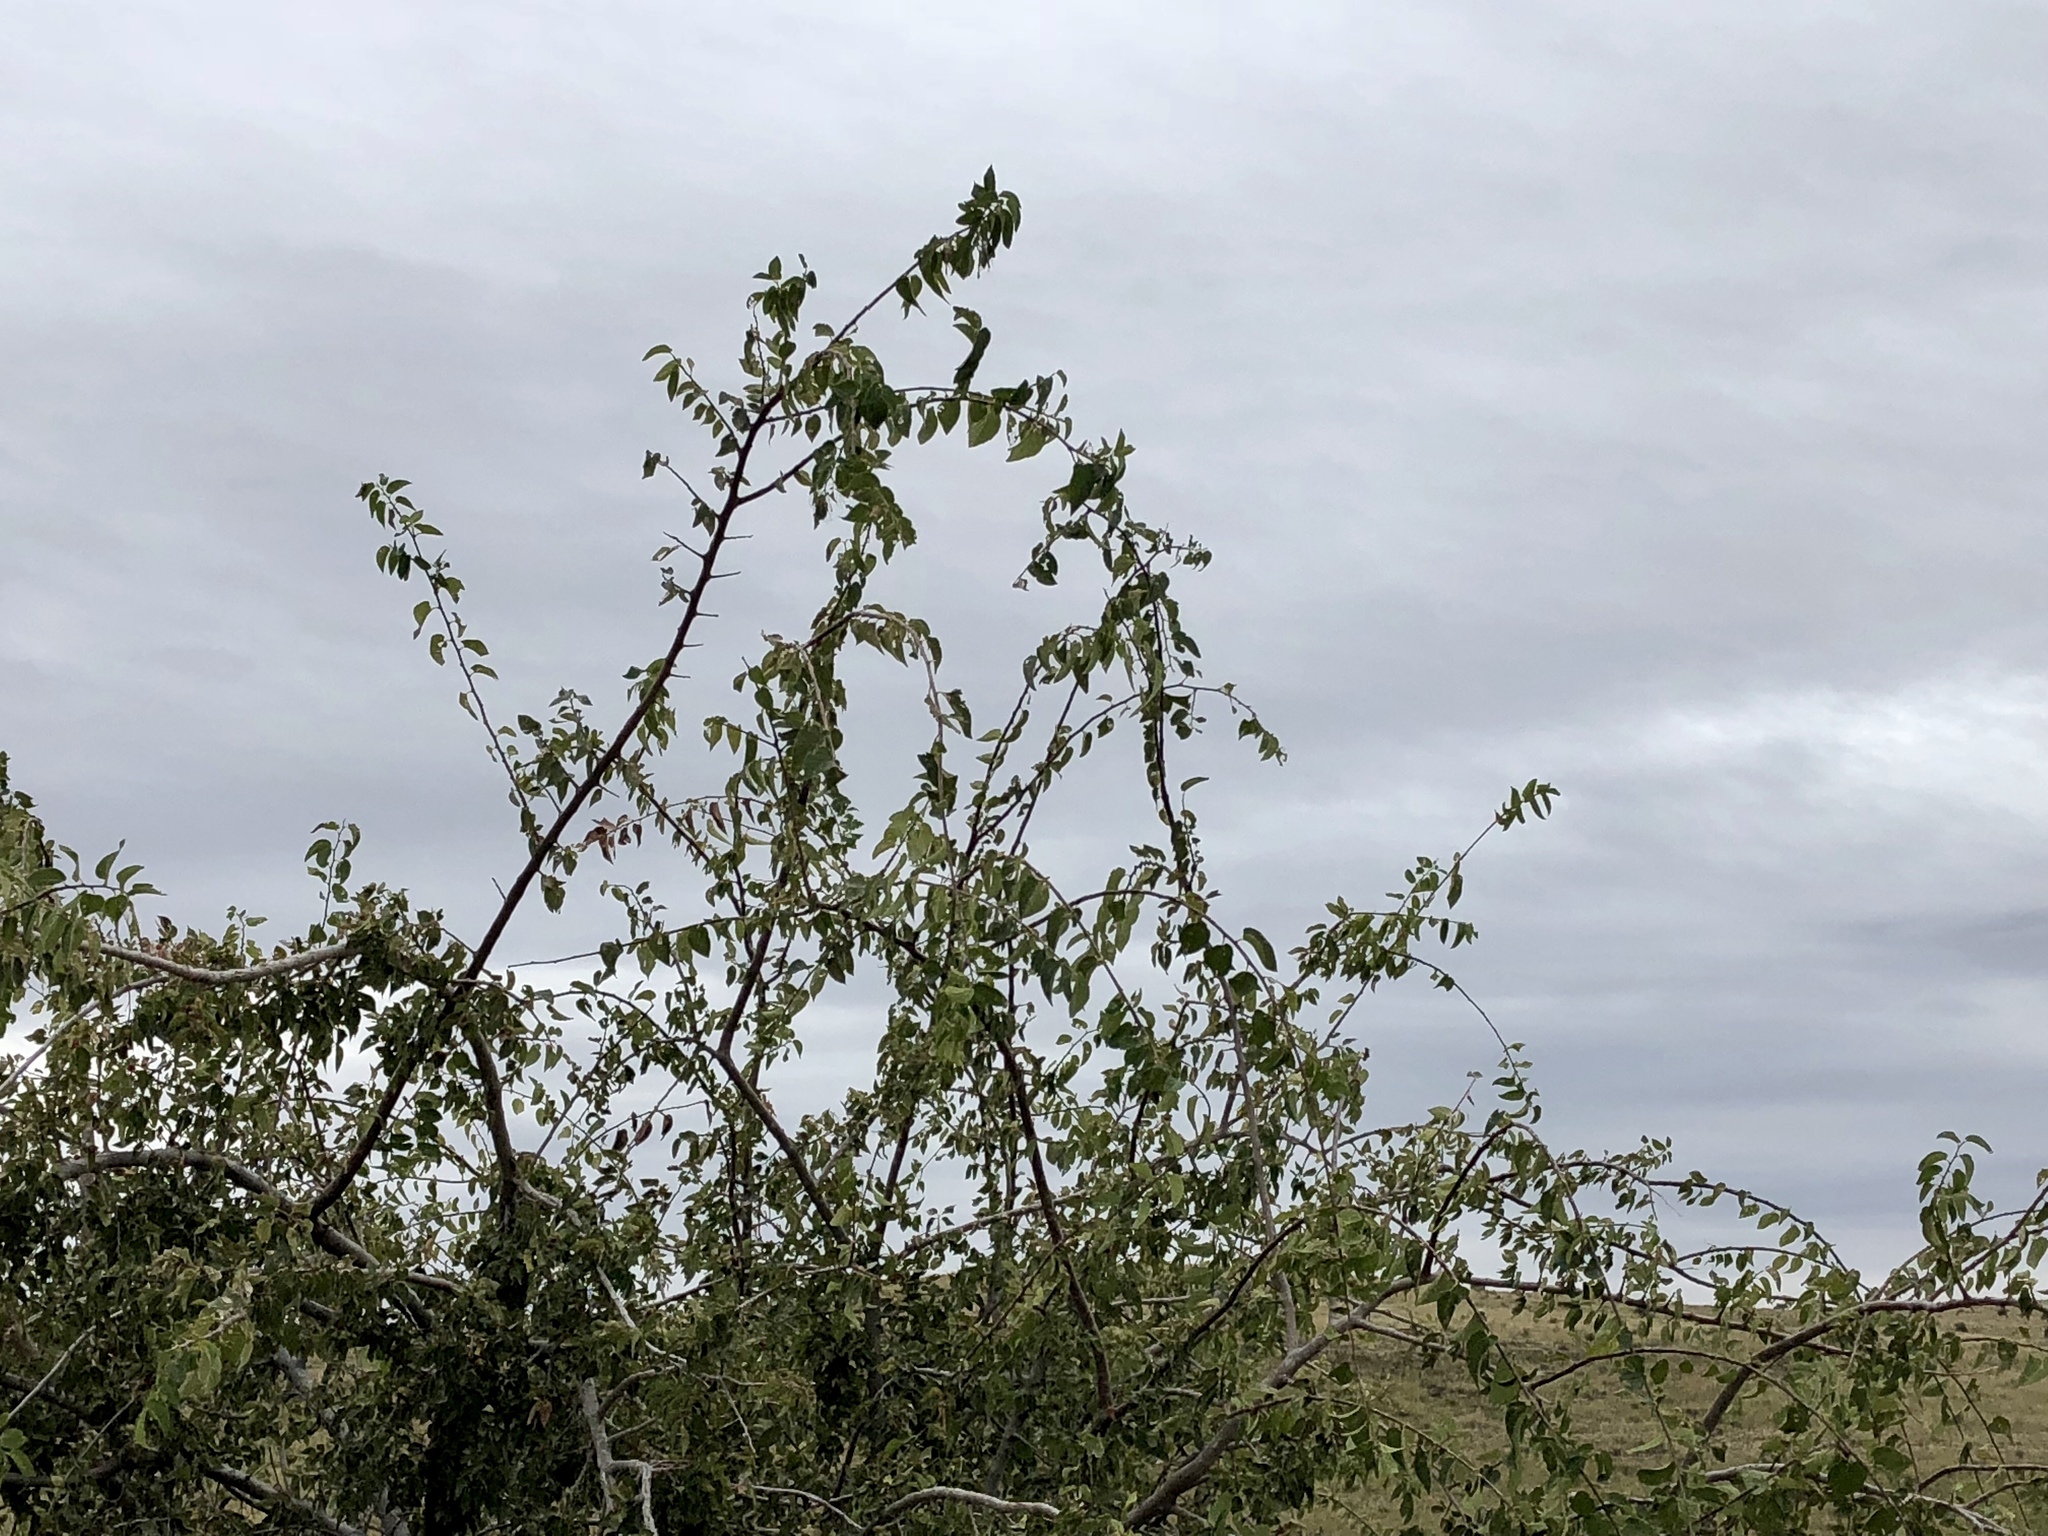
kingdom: Plantae
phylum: Tracheophyta
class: Magnoliopsida
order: Rosales
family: Cannabaceae
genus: Celtis
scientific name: Celtis reticulata
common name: Netleaf hackberry
